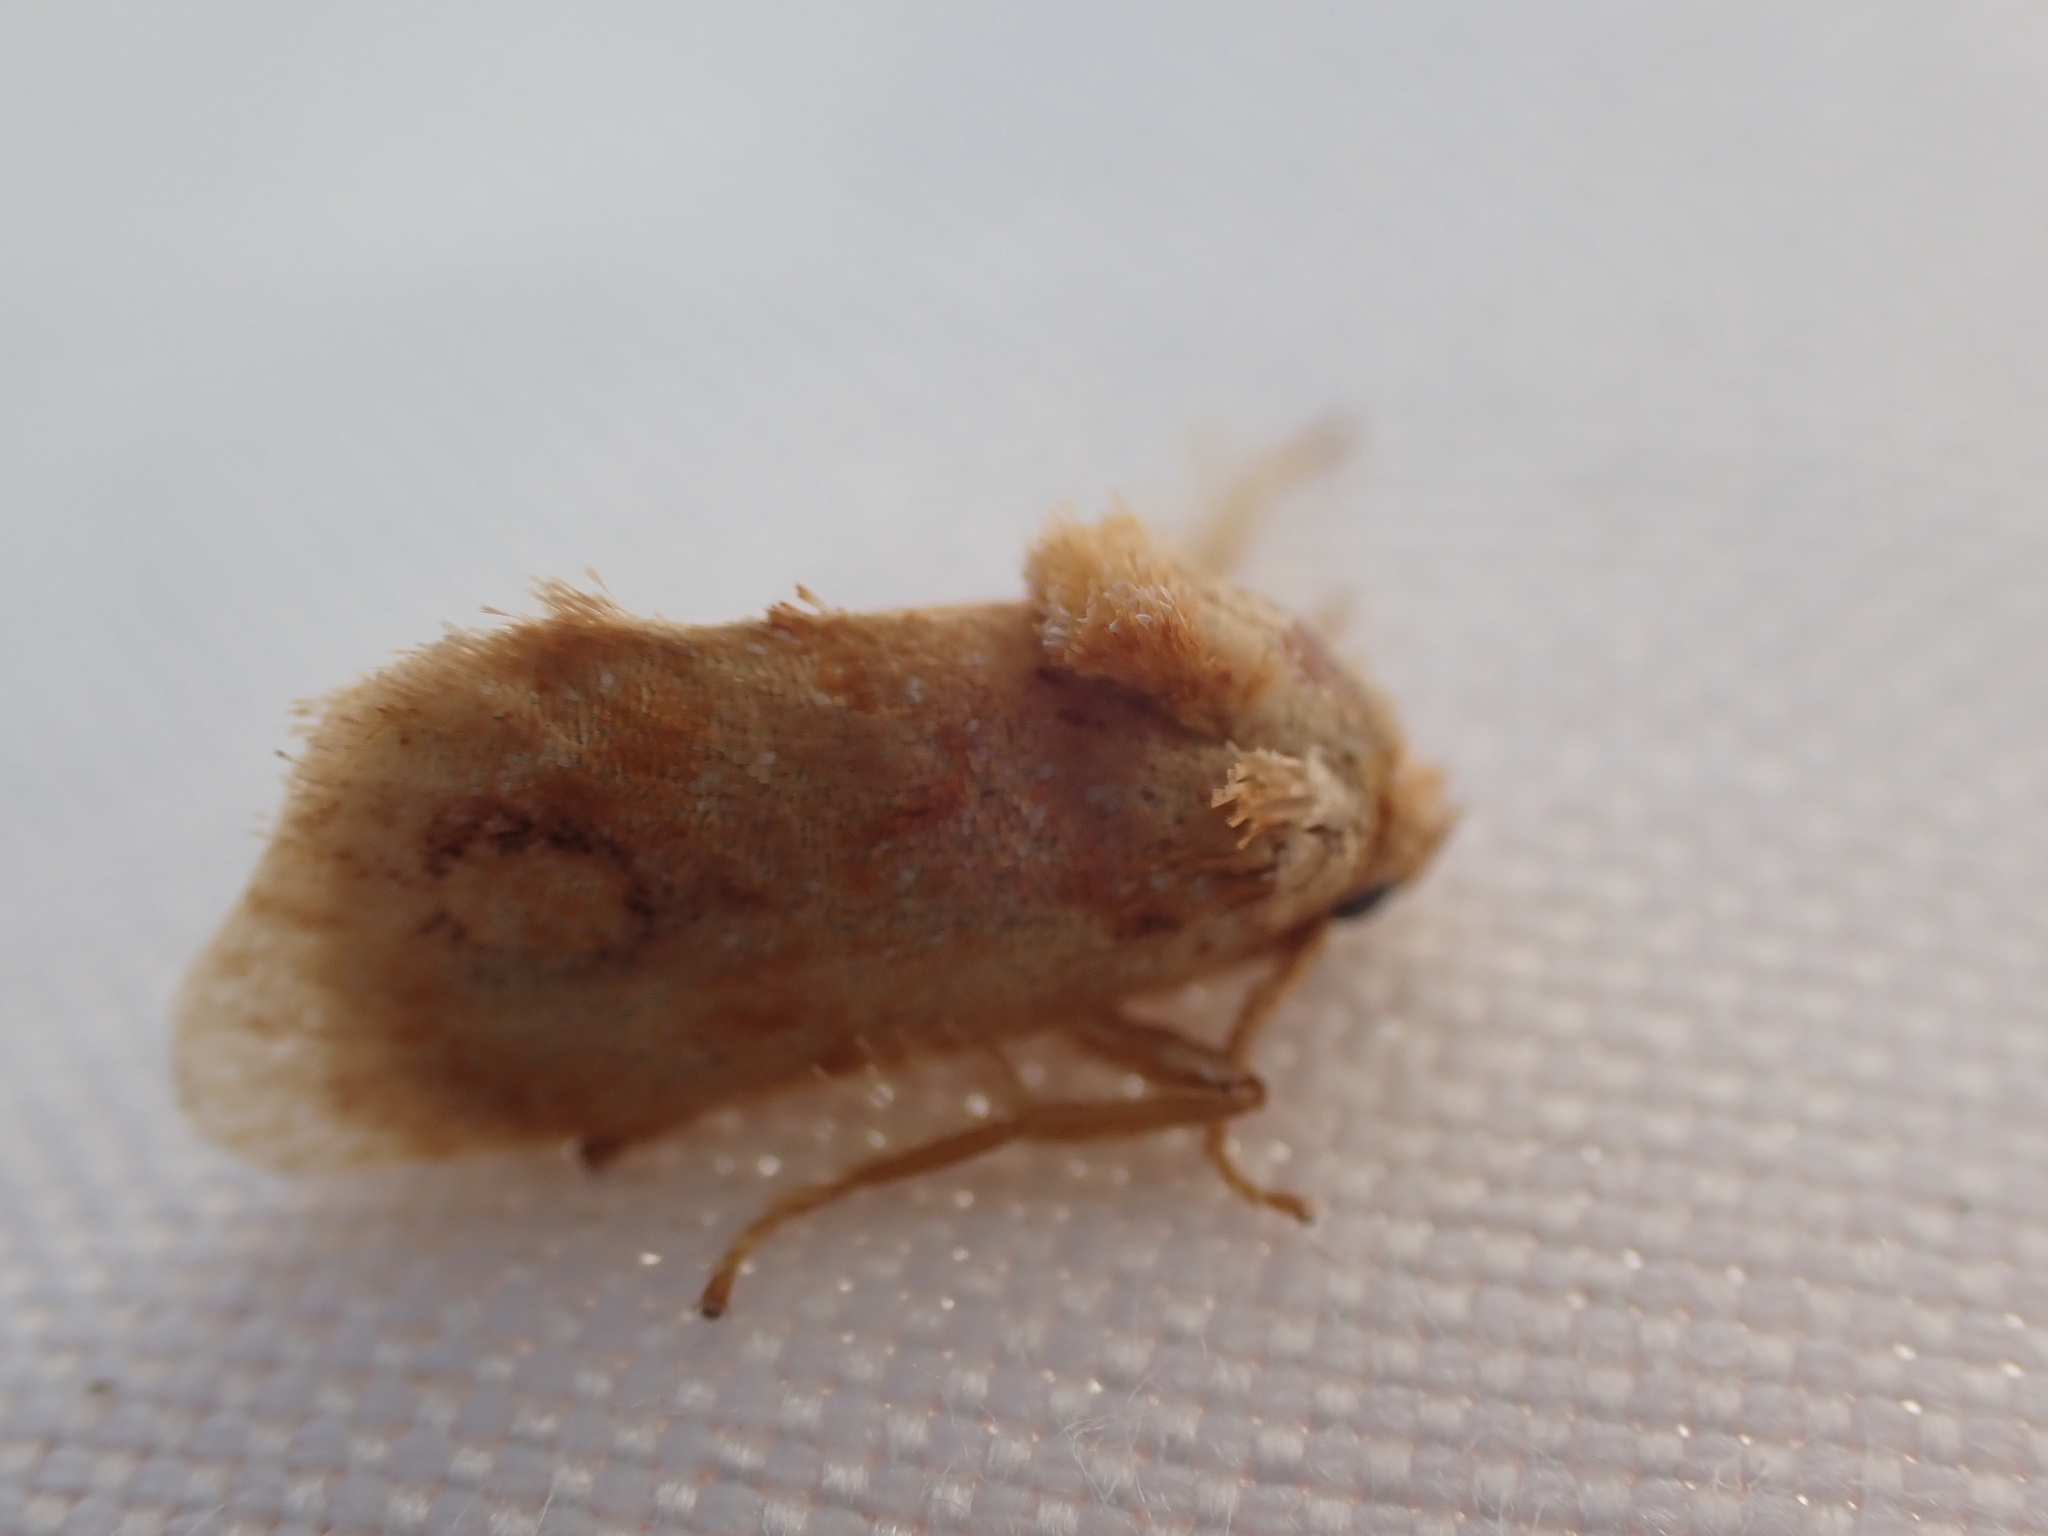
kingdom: Animalia
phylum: Arthropoda
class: Insecta
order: Lepidoptera
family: Limacodidae
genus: Isochaetes
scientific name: Isochaetes beutenmuelleri
